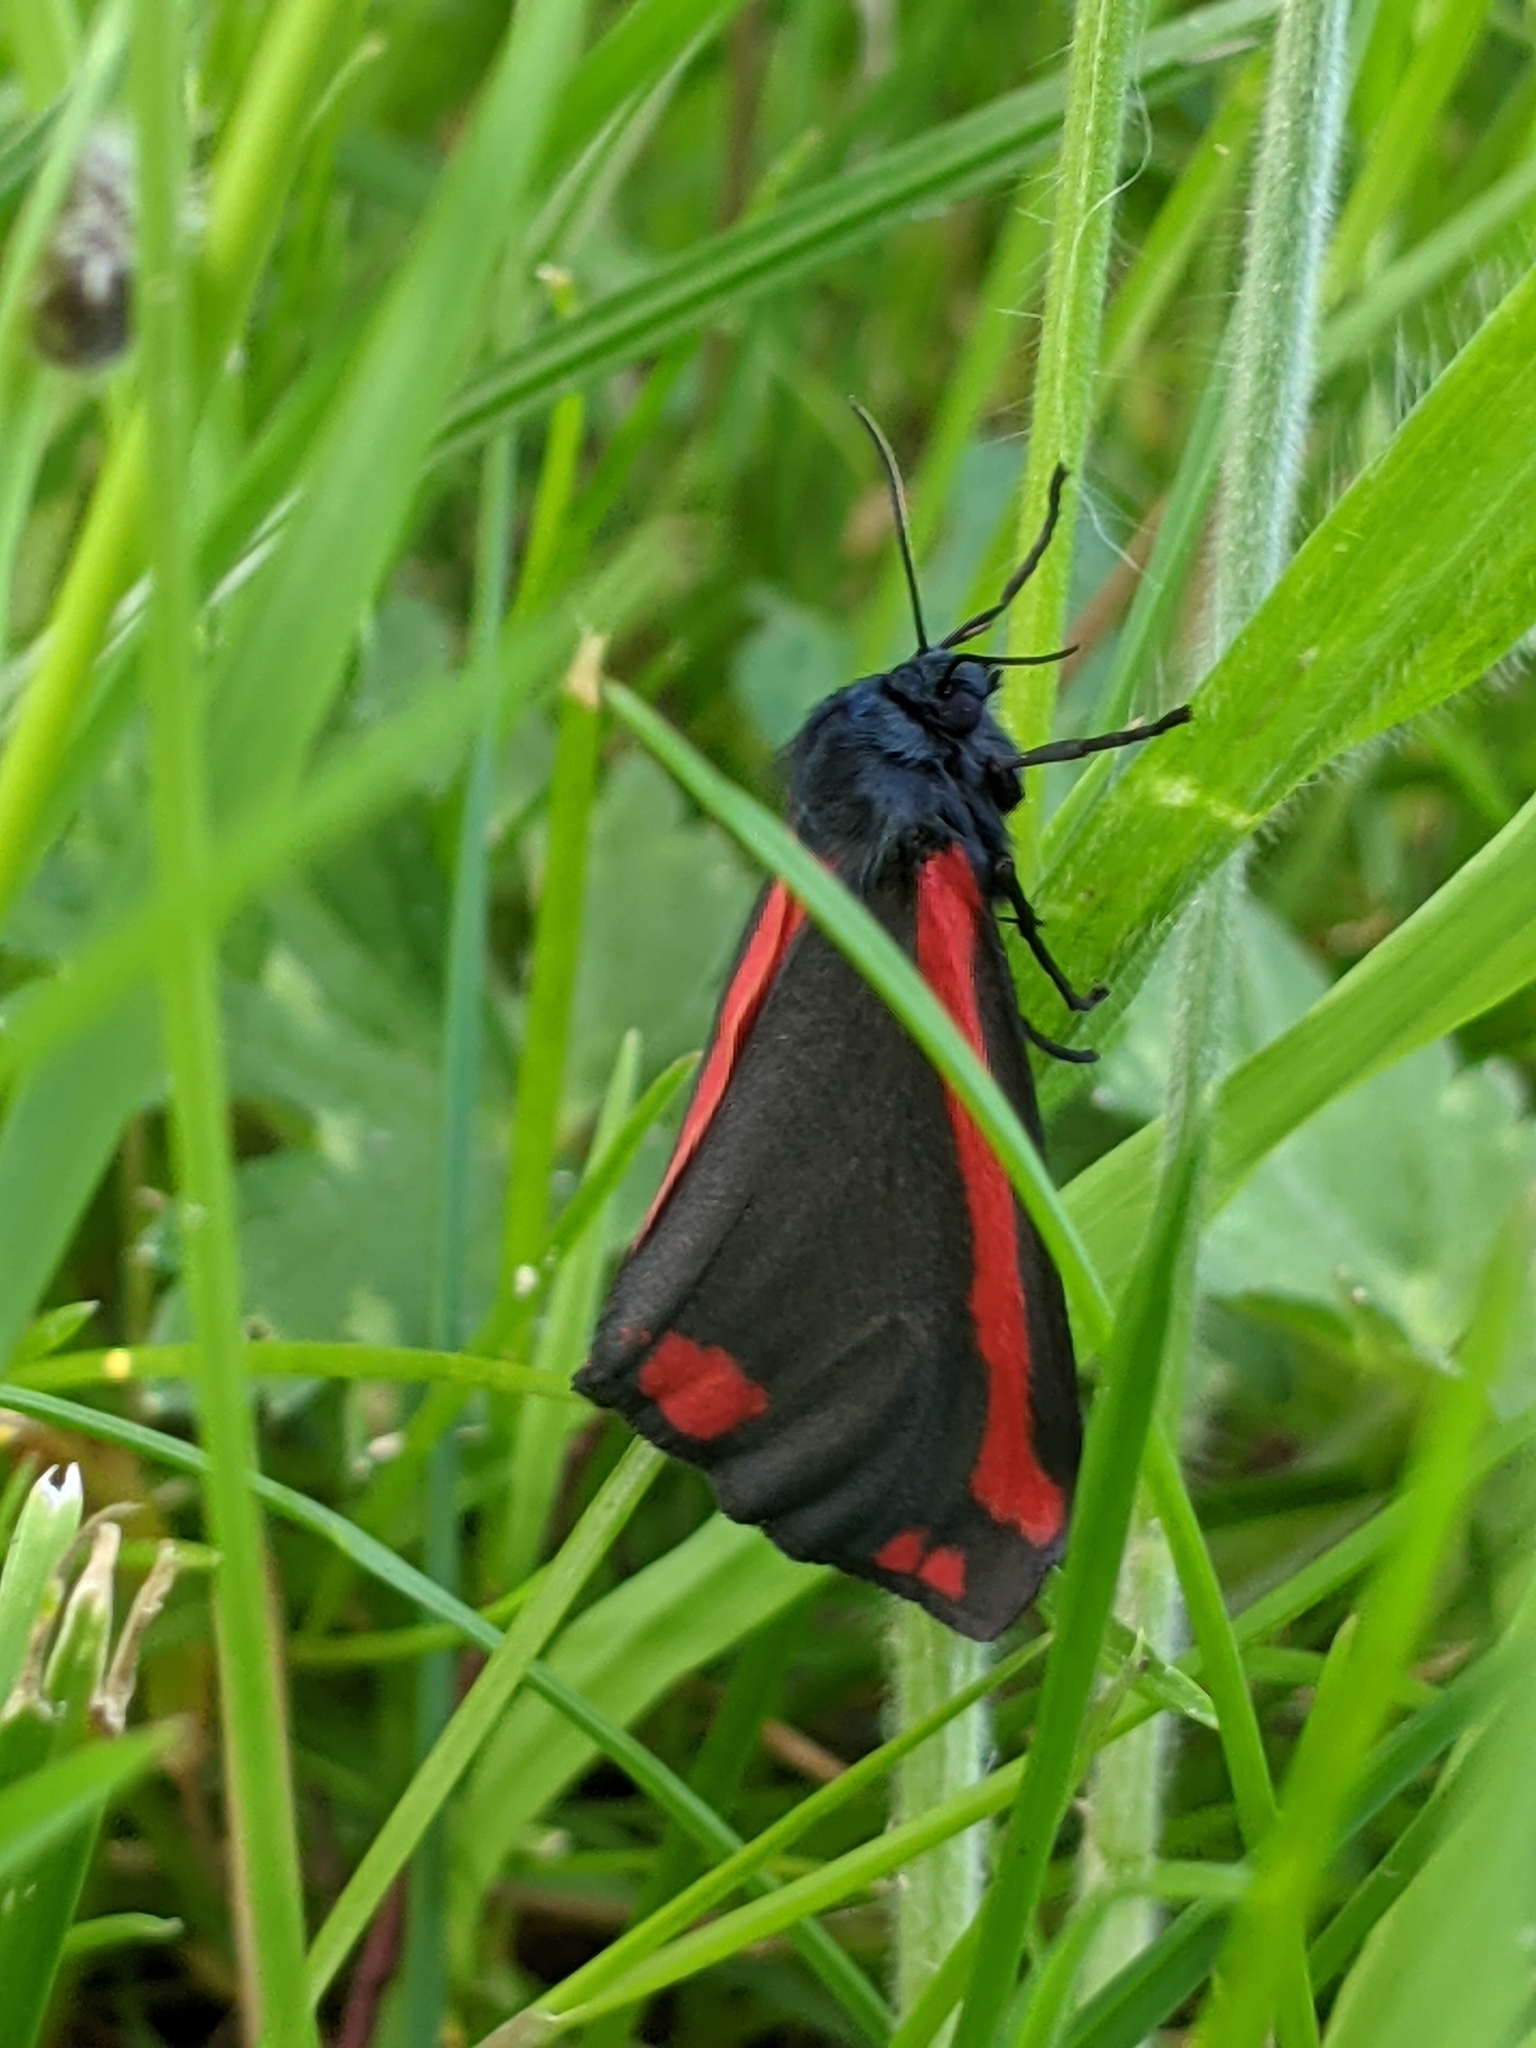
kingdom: Animalia
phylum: Arthropoda
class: Insecta
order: Lepidoptera
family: Erebidae
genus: Tyria
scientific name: Tyria jacobaeae
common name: Cinnabar
